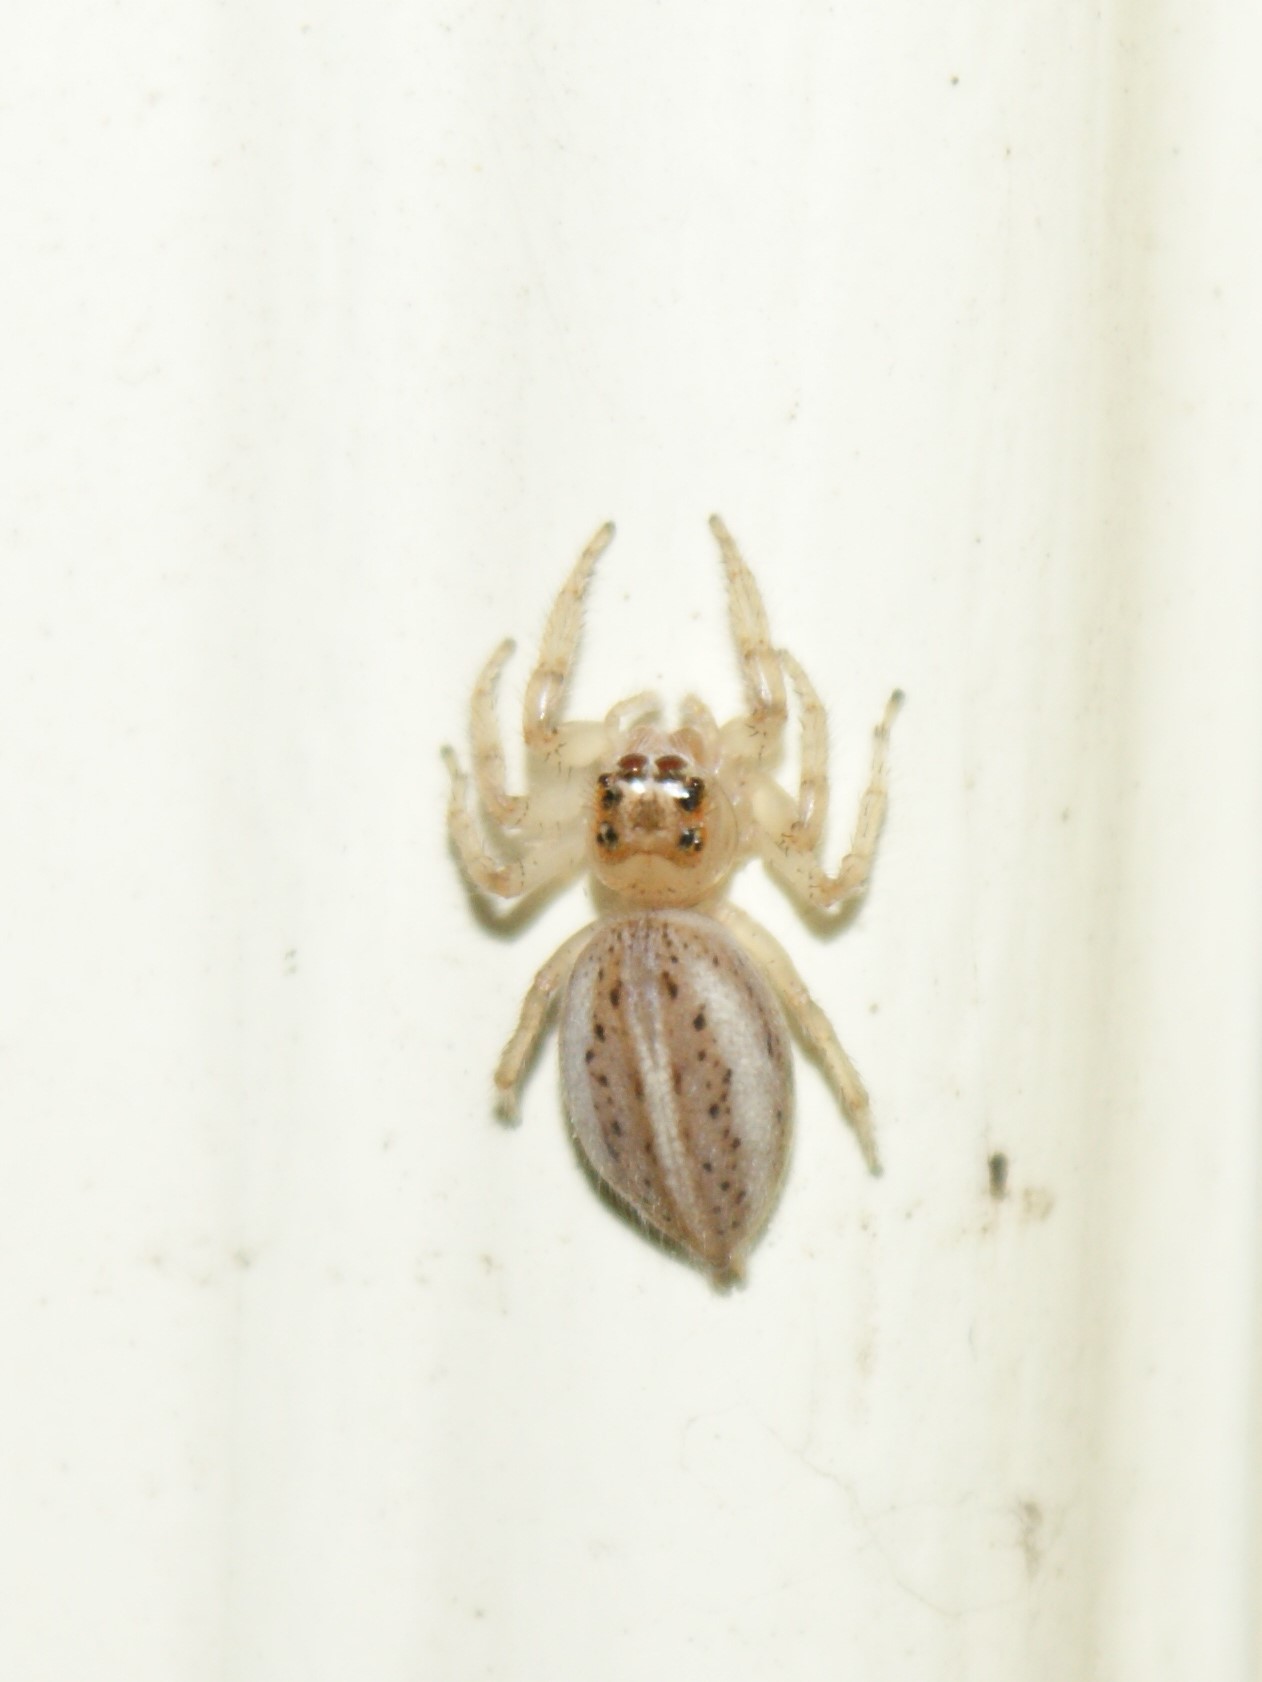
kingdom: Animalia
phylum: Arthropoda
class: Arachnida
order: Araneae
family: Salticidae
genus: Colonus
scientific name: Colonus sylvanus
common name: Jumping spiders
